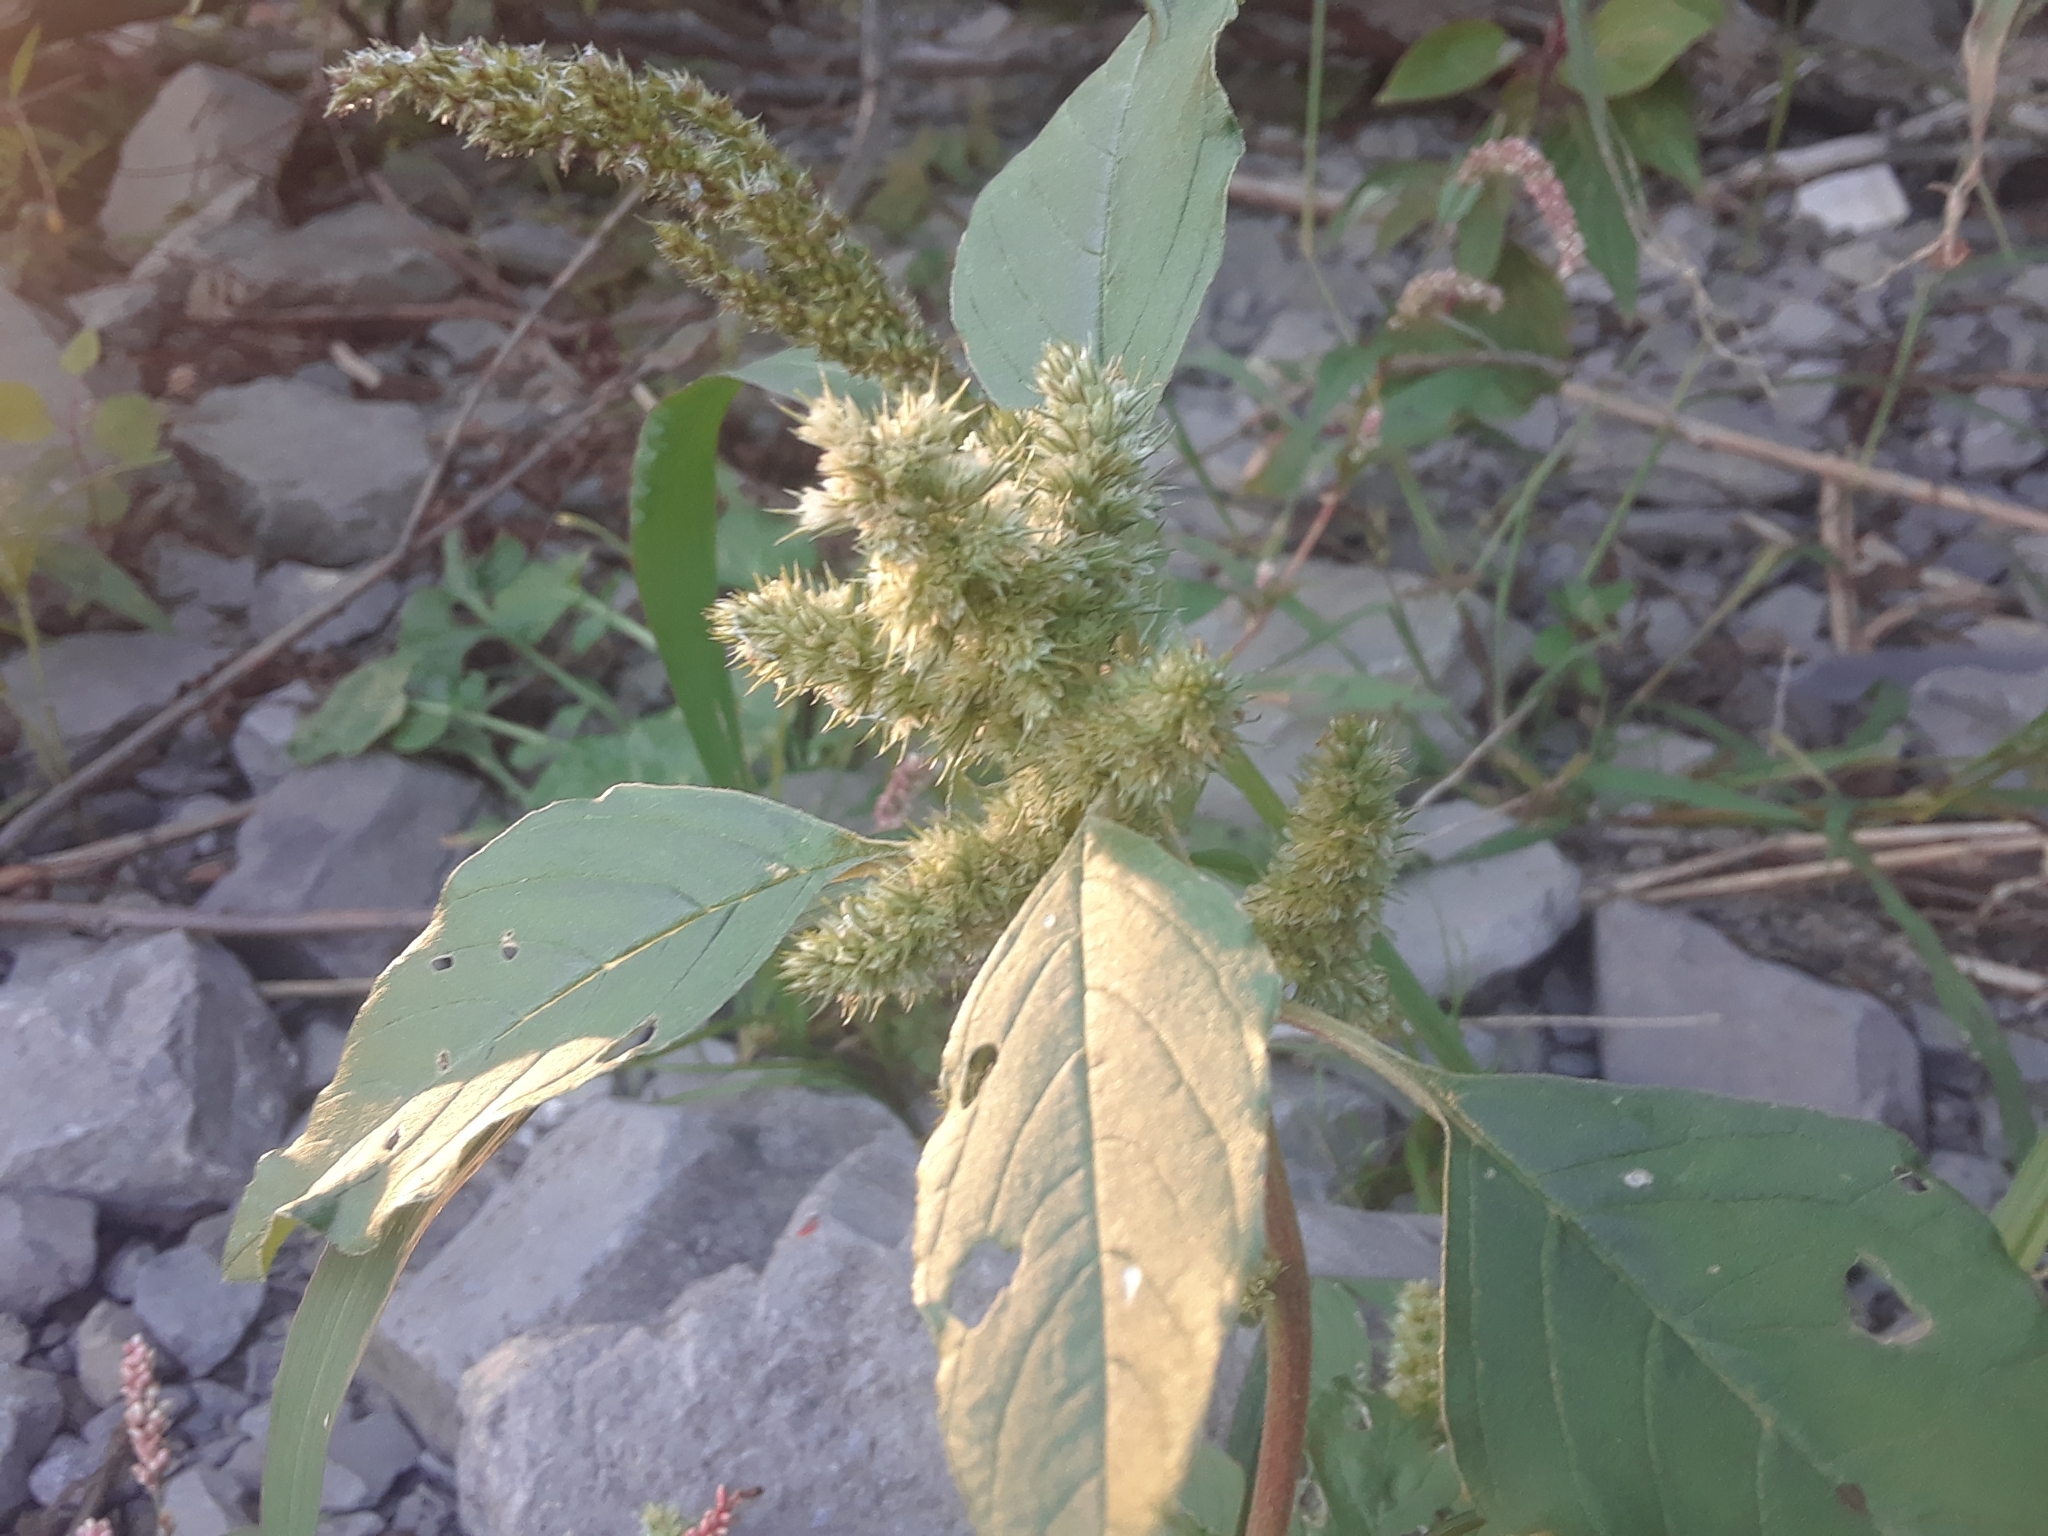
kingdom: Plantae
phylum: Tracheophyta
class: Magnoliopsida
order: Caryophyllales
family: Amaranthaceae
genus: Amaranthus
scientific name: Amaranthus retroflexus
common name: Redroot amaranth
